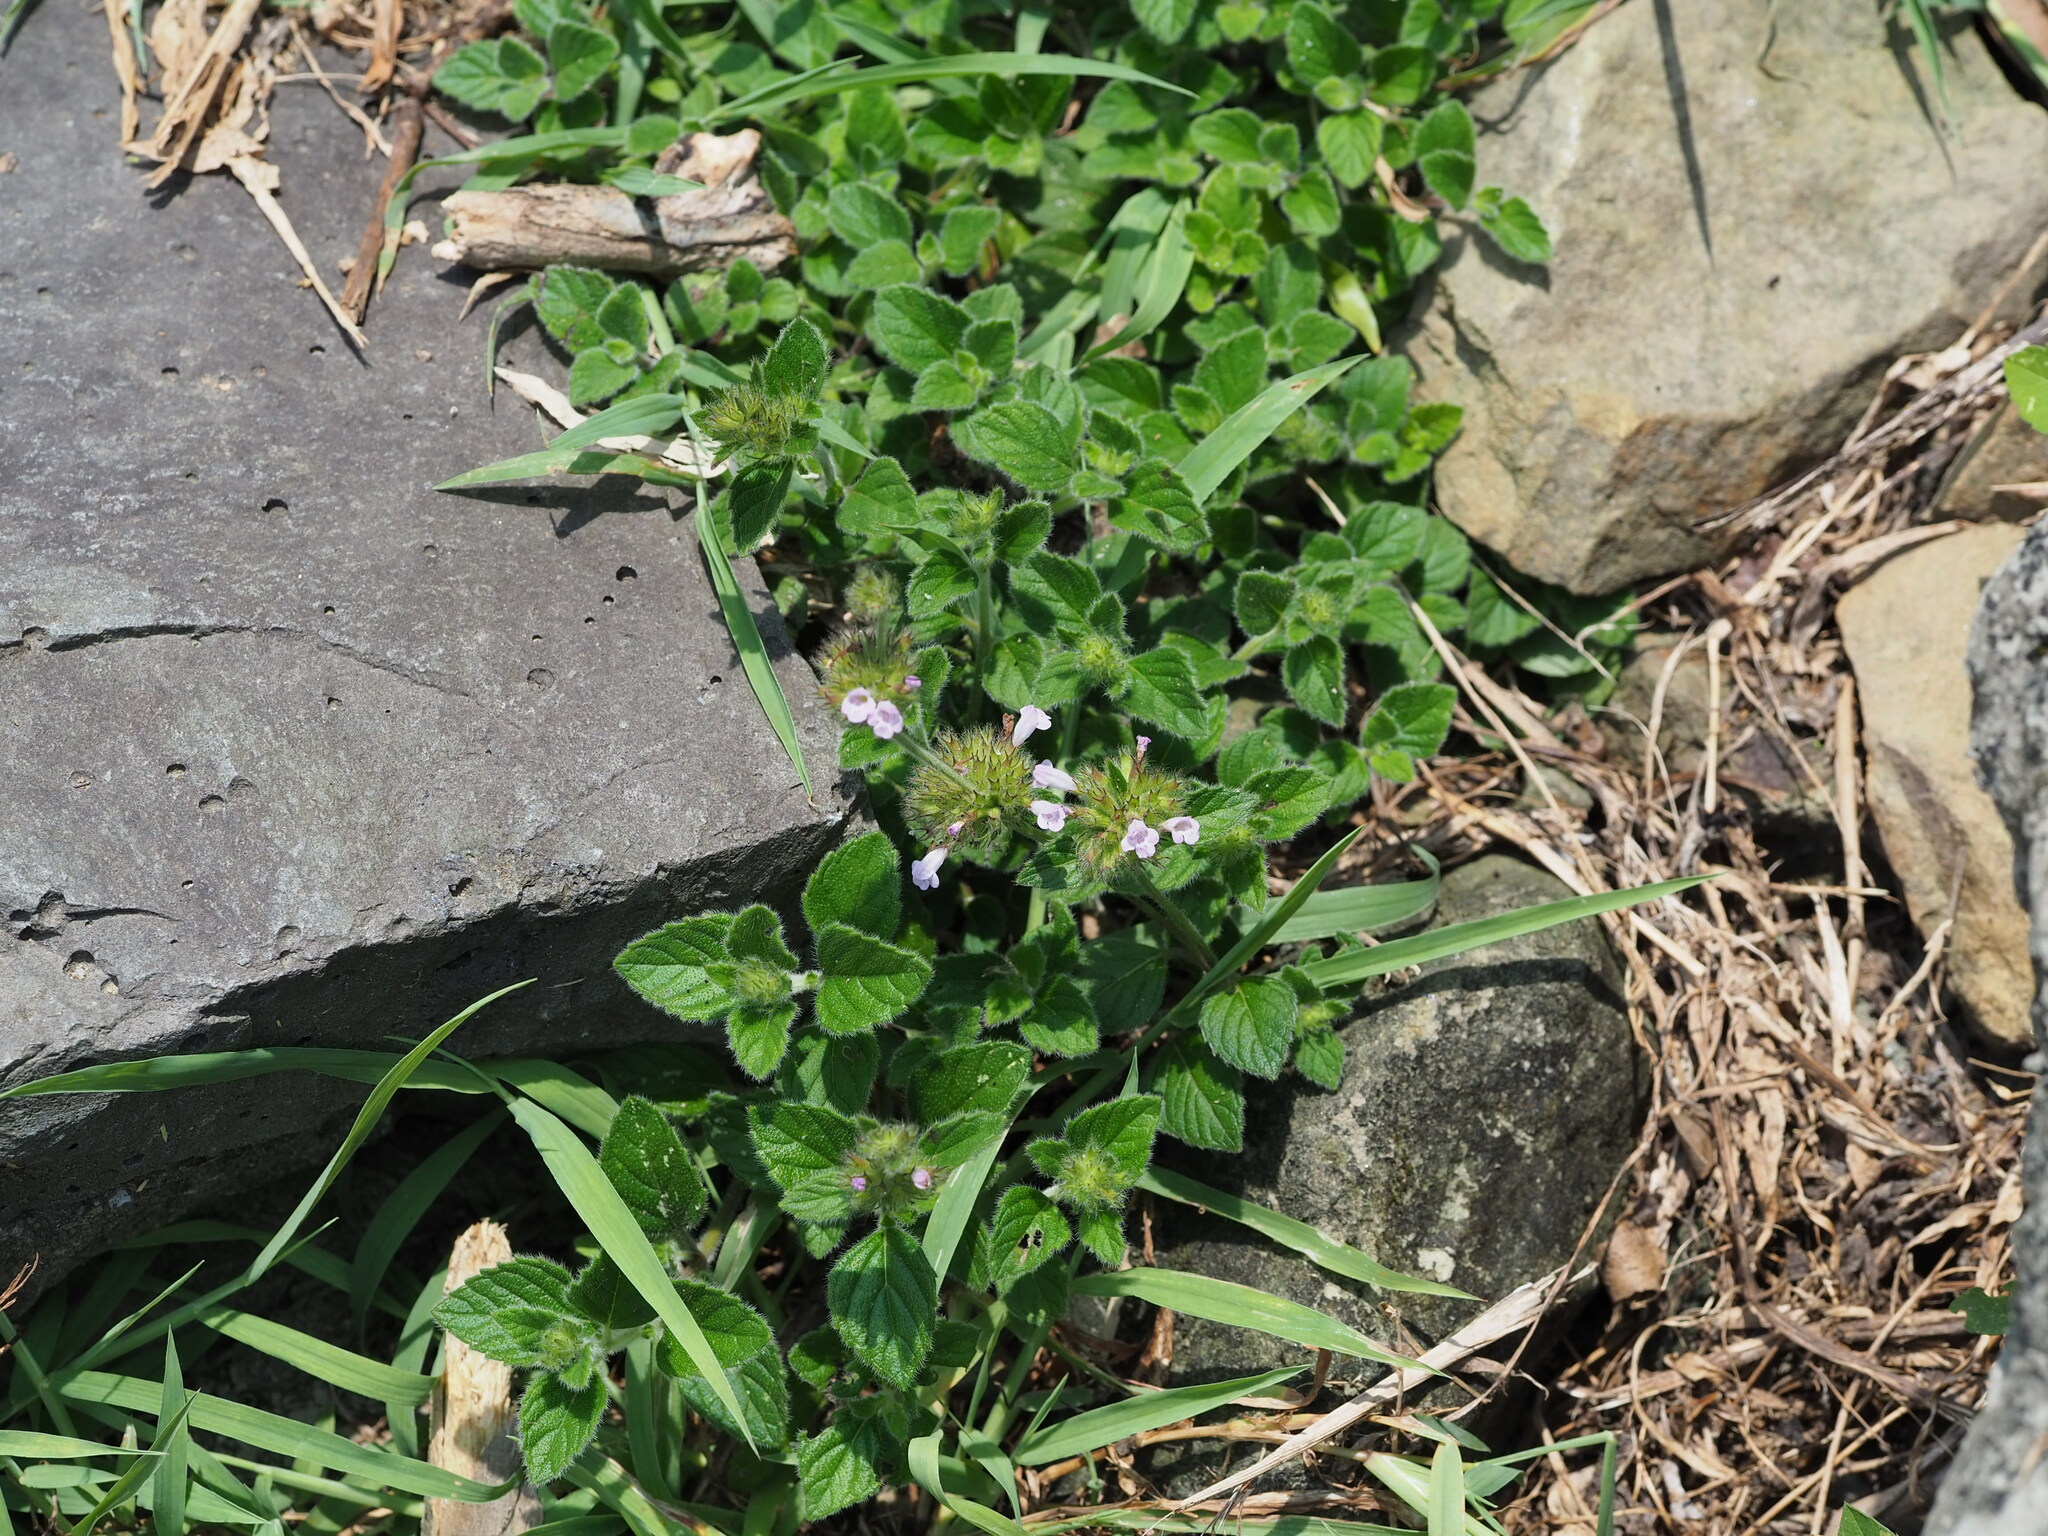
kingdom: Plantae
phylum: Tracheophyta
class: Magnoliopsida
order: Lamiales
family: Lamiaceae
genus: Clinopodium
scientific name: Clinopodium chinense
